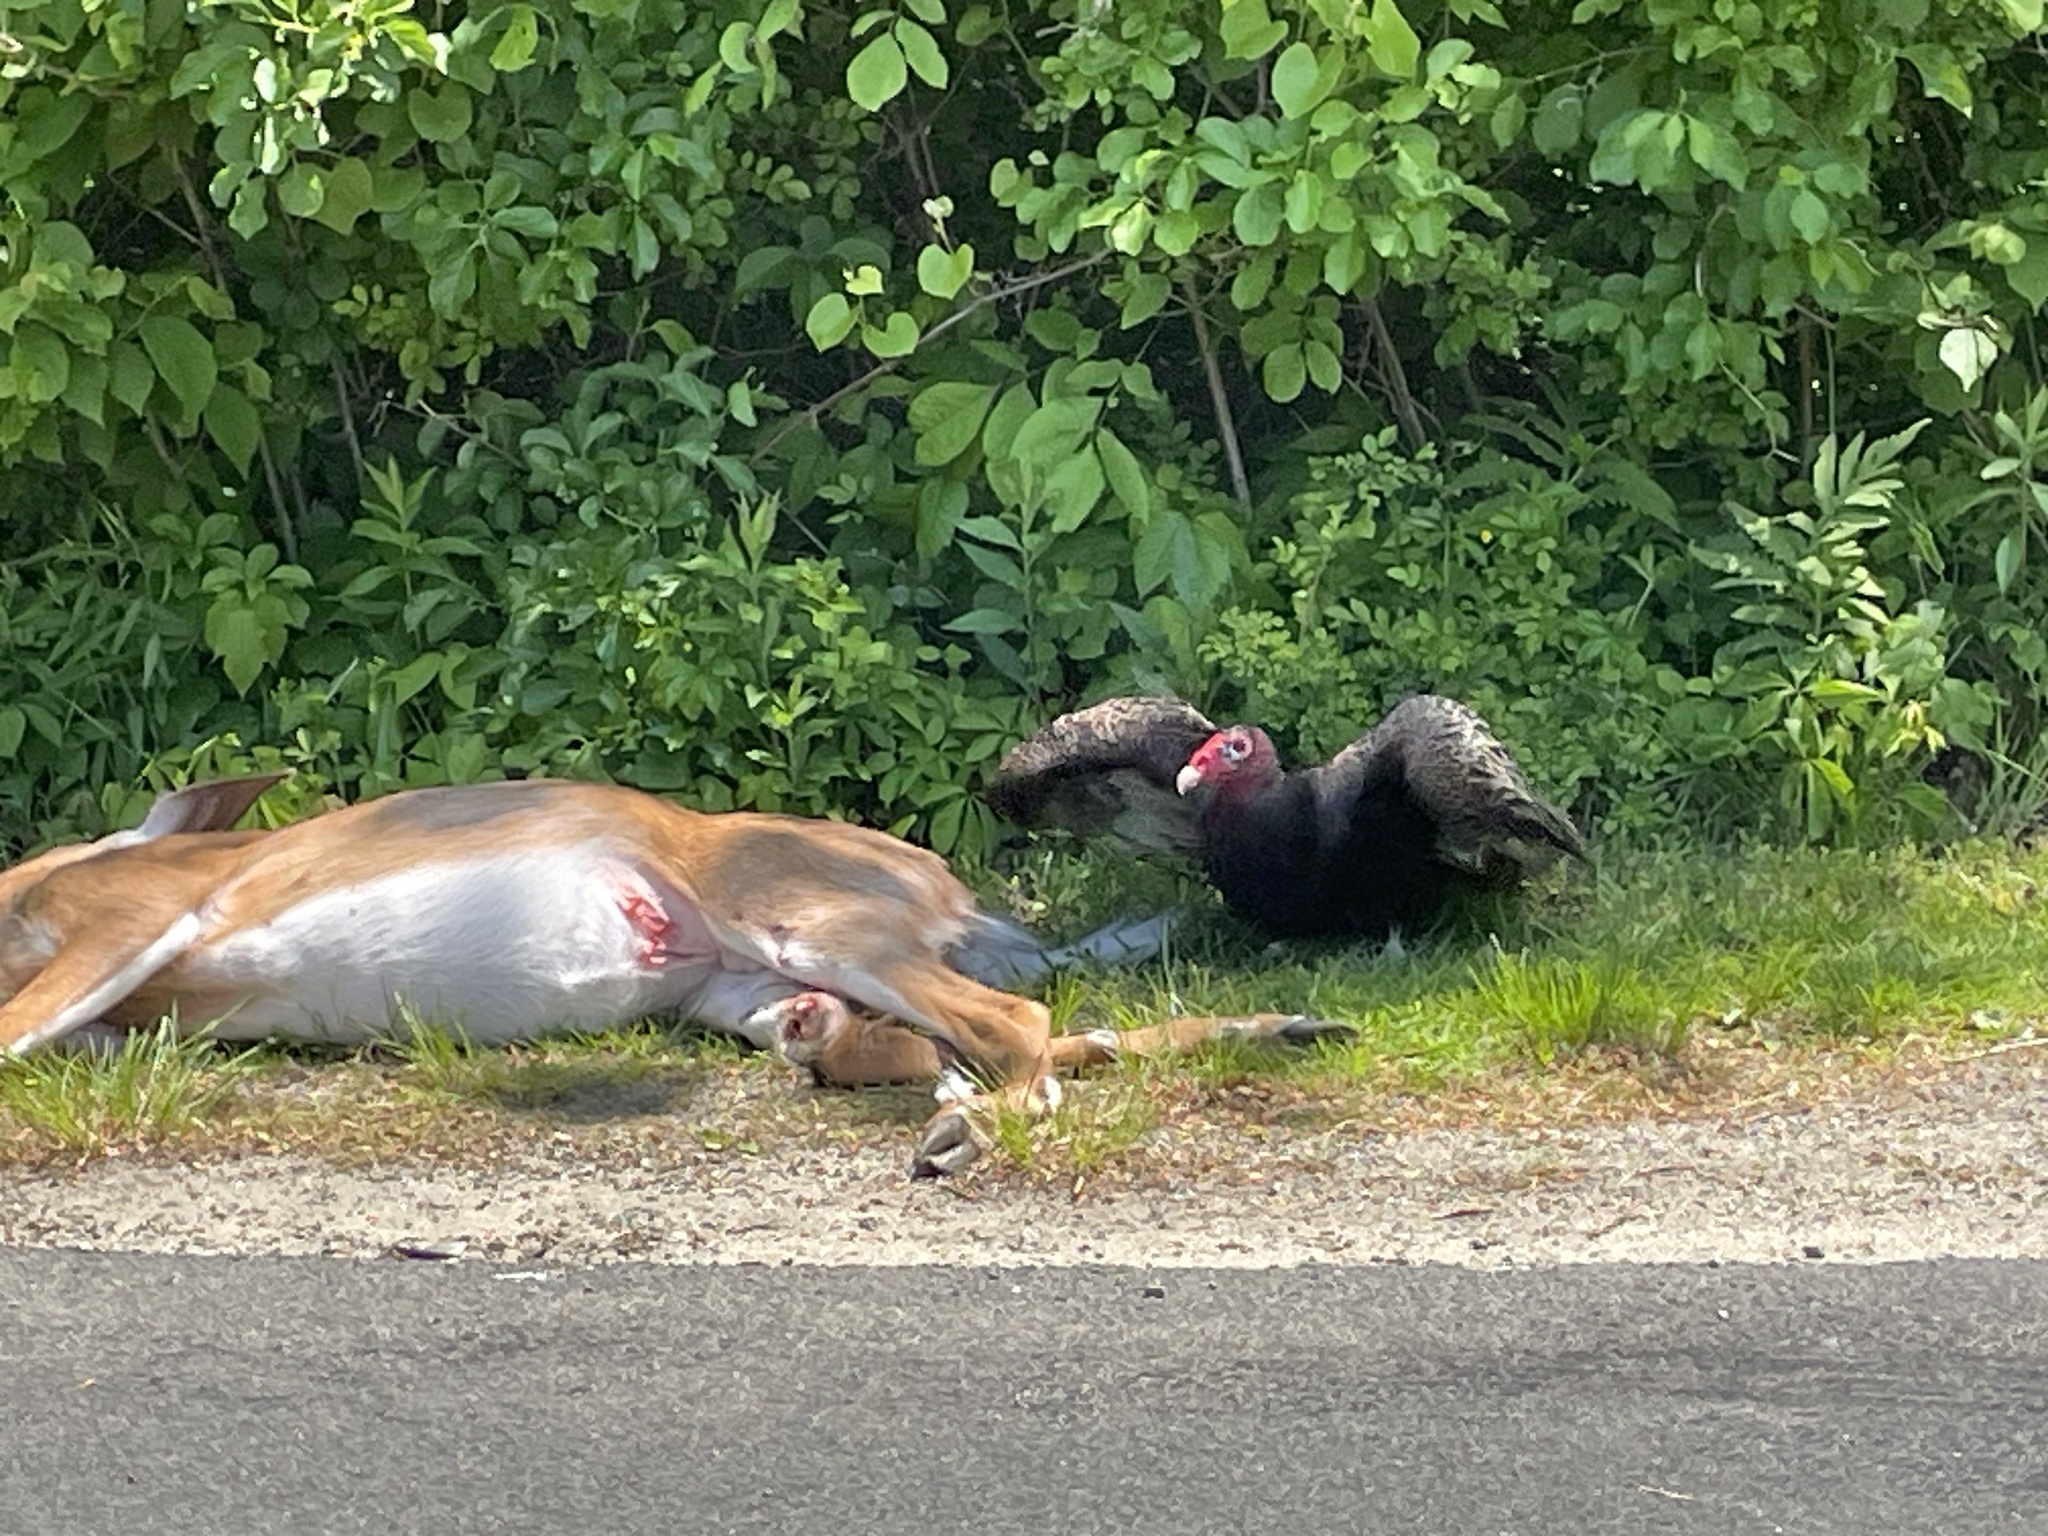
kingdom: Animalia
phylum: Chordata
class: Mammalia
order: Artiodactyla
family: Cervidae
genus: Odocoileus
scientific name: Odocoileus virginianus
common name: White-tailed deer
